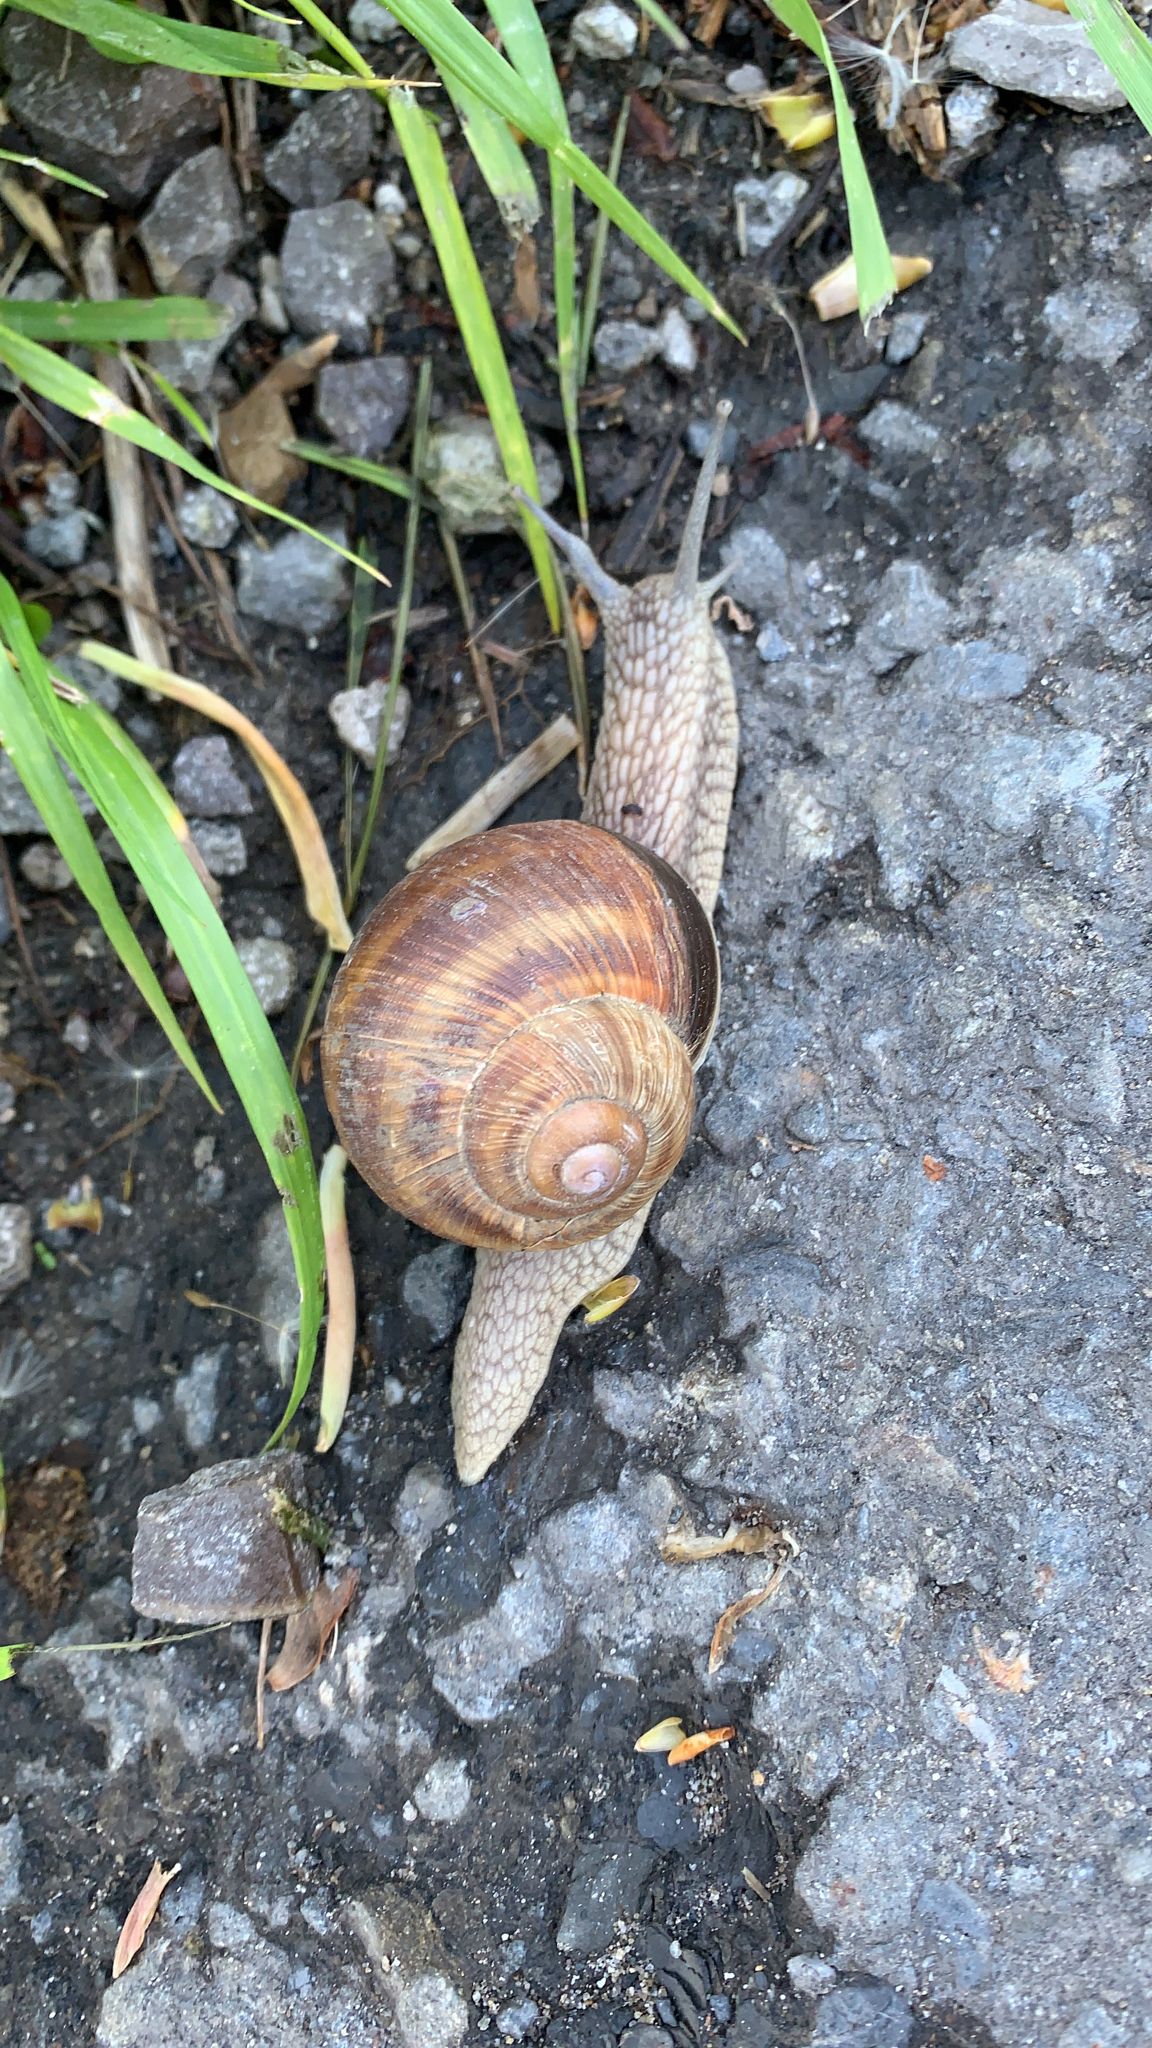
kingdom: Animalia
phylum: Mollusca
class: Gastropoda
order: Stylommatophora
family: Helicidae
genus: Helix
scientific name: Helix pomatia
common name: Roman snail
